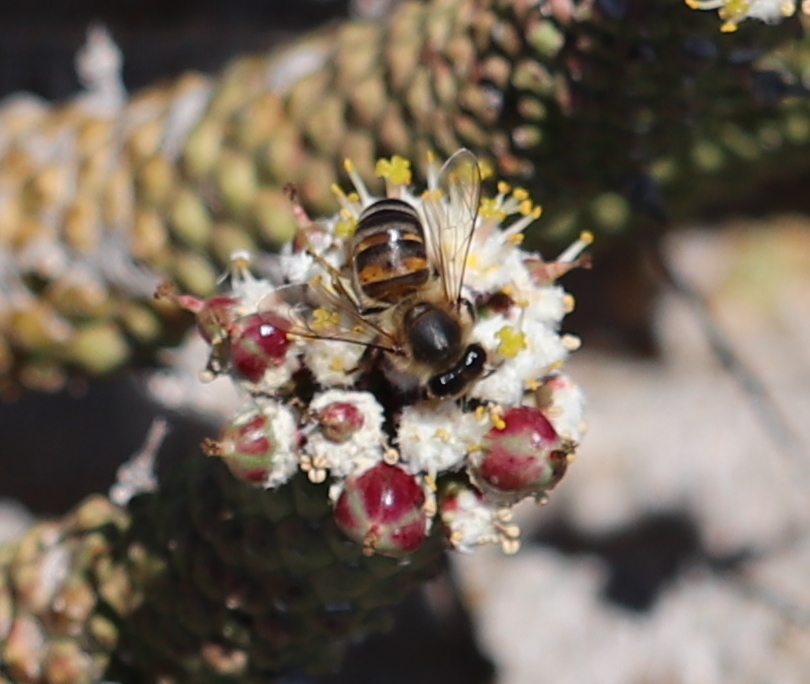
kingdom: Animalia
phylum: Arthropoda
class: Insecta
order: Hymenoptera
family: Apidae
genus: Apis
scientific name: Apis mellifera
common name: Honey bee
